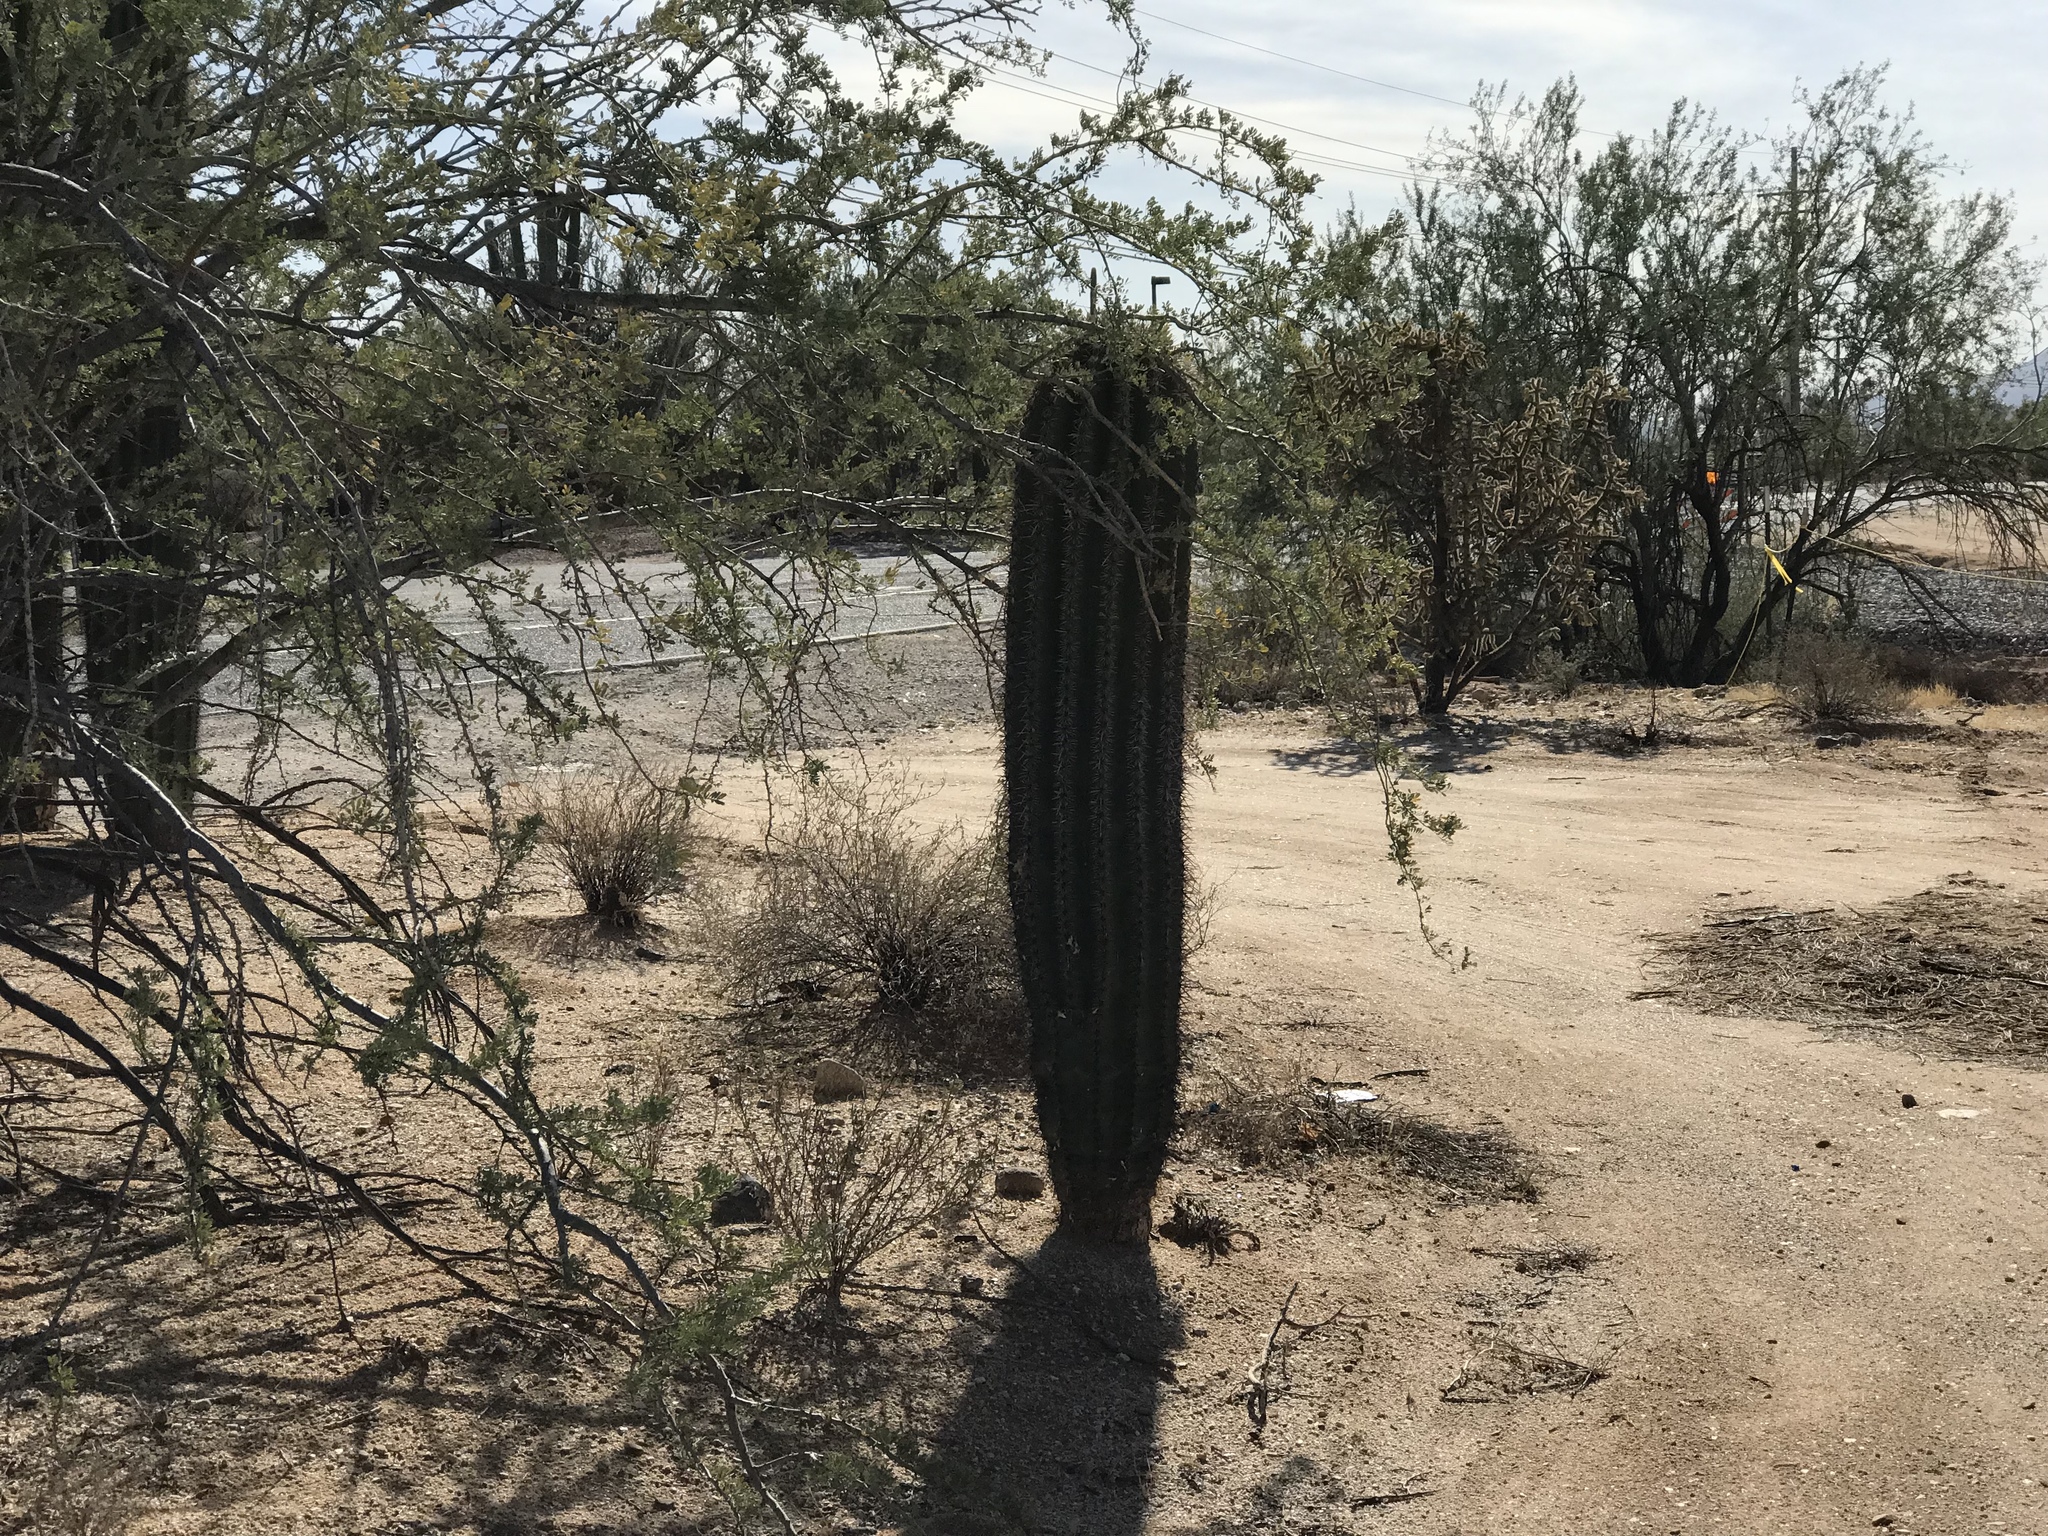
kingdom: Plantae
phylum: Tracheophyta
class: Magnoliopsida
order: Caryophyllales
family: Cactaceae
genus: Carnegiea
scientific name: Carnegiea gigantea
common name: Saguaro
